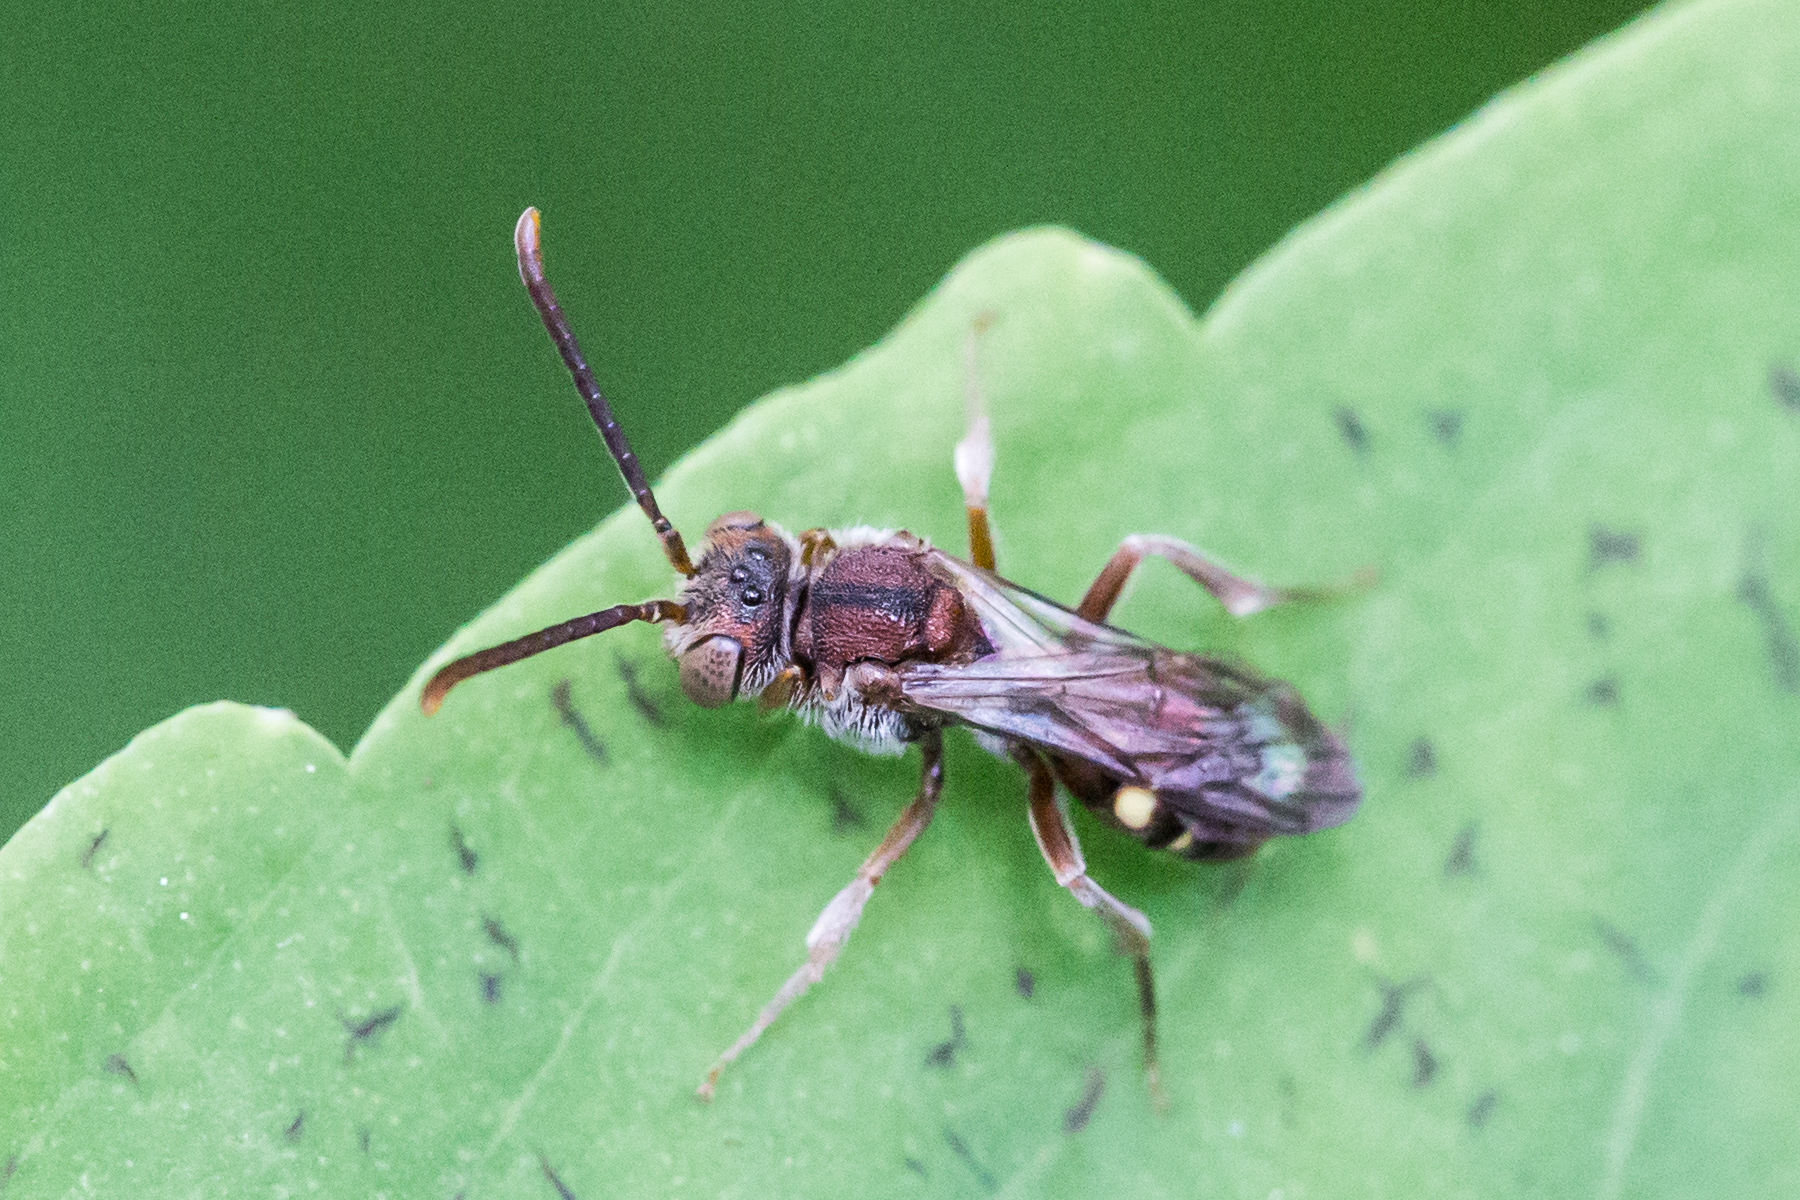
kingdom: Animalia
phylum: Arthropoda
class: Insecta
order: Hymenoptera
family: Apidae
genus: Nomada
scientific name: Nomada
